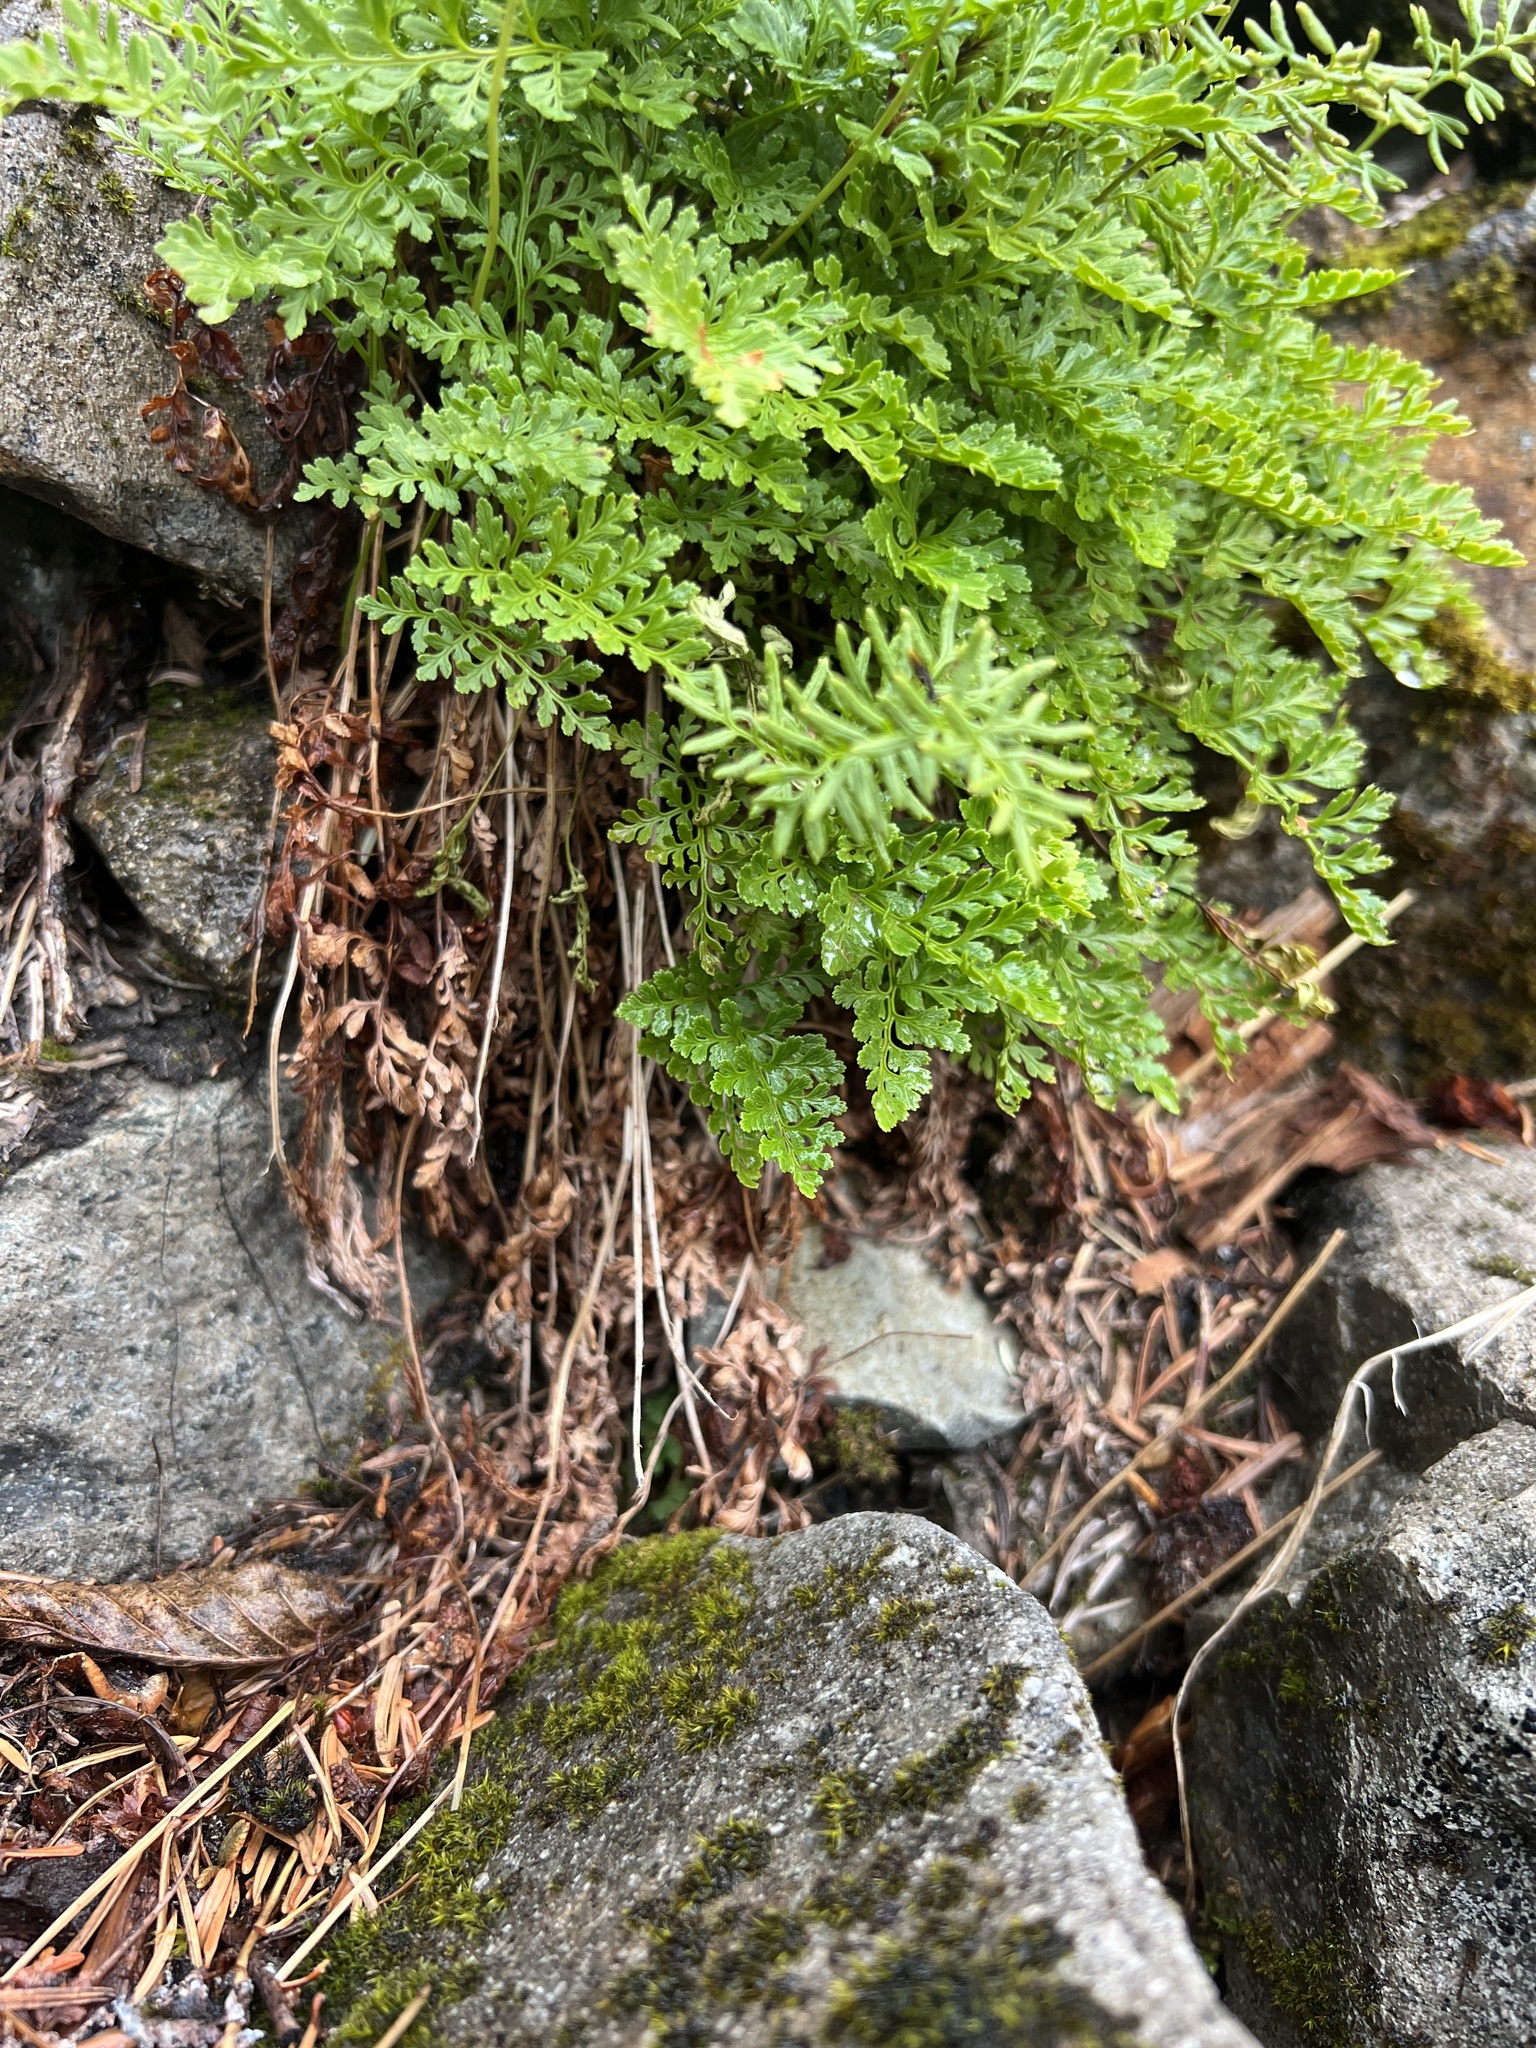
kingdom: Plantae
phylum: Tracheophyta
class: Polypodiopsida
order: Polypodiales
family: Pteridaceae
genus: Cryptogramma
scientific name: Cryptogramma acrostichoides
